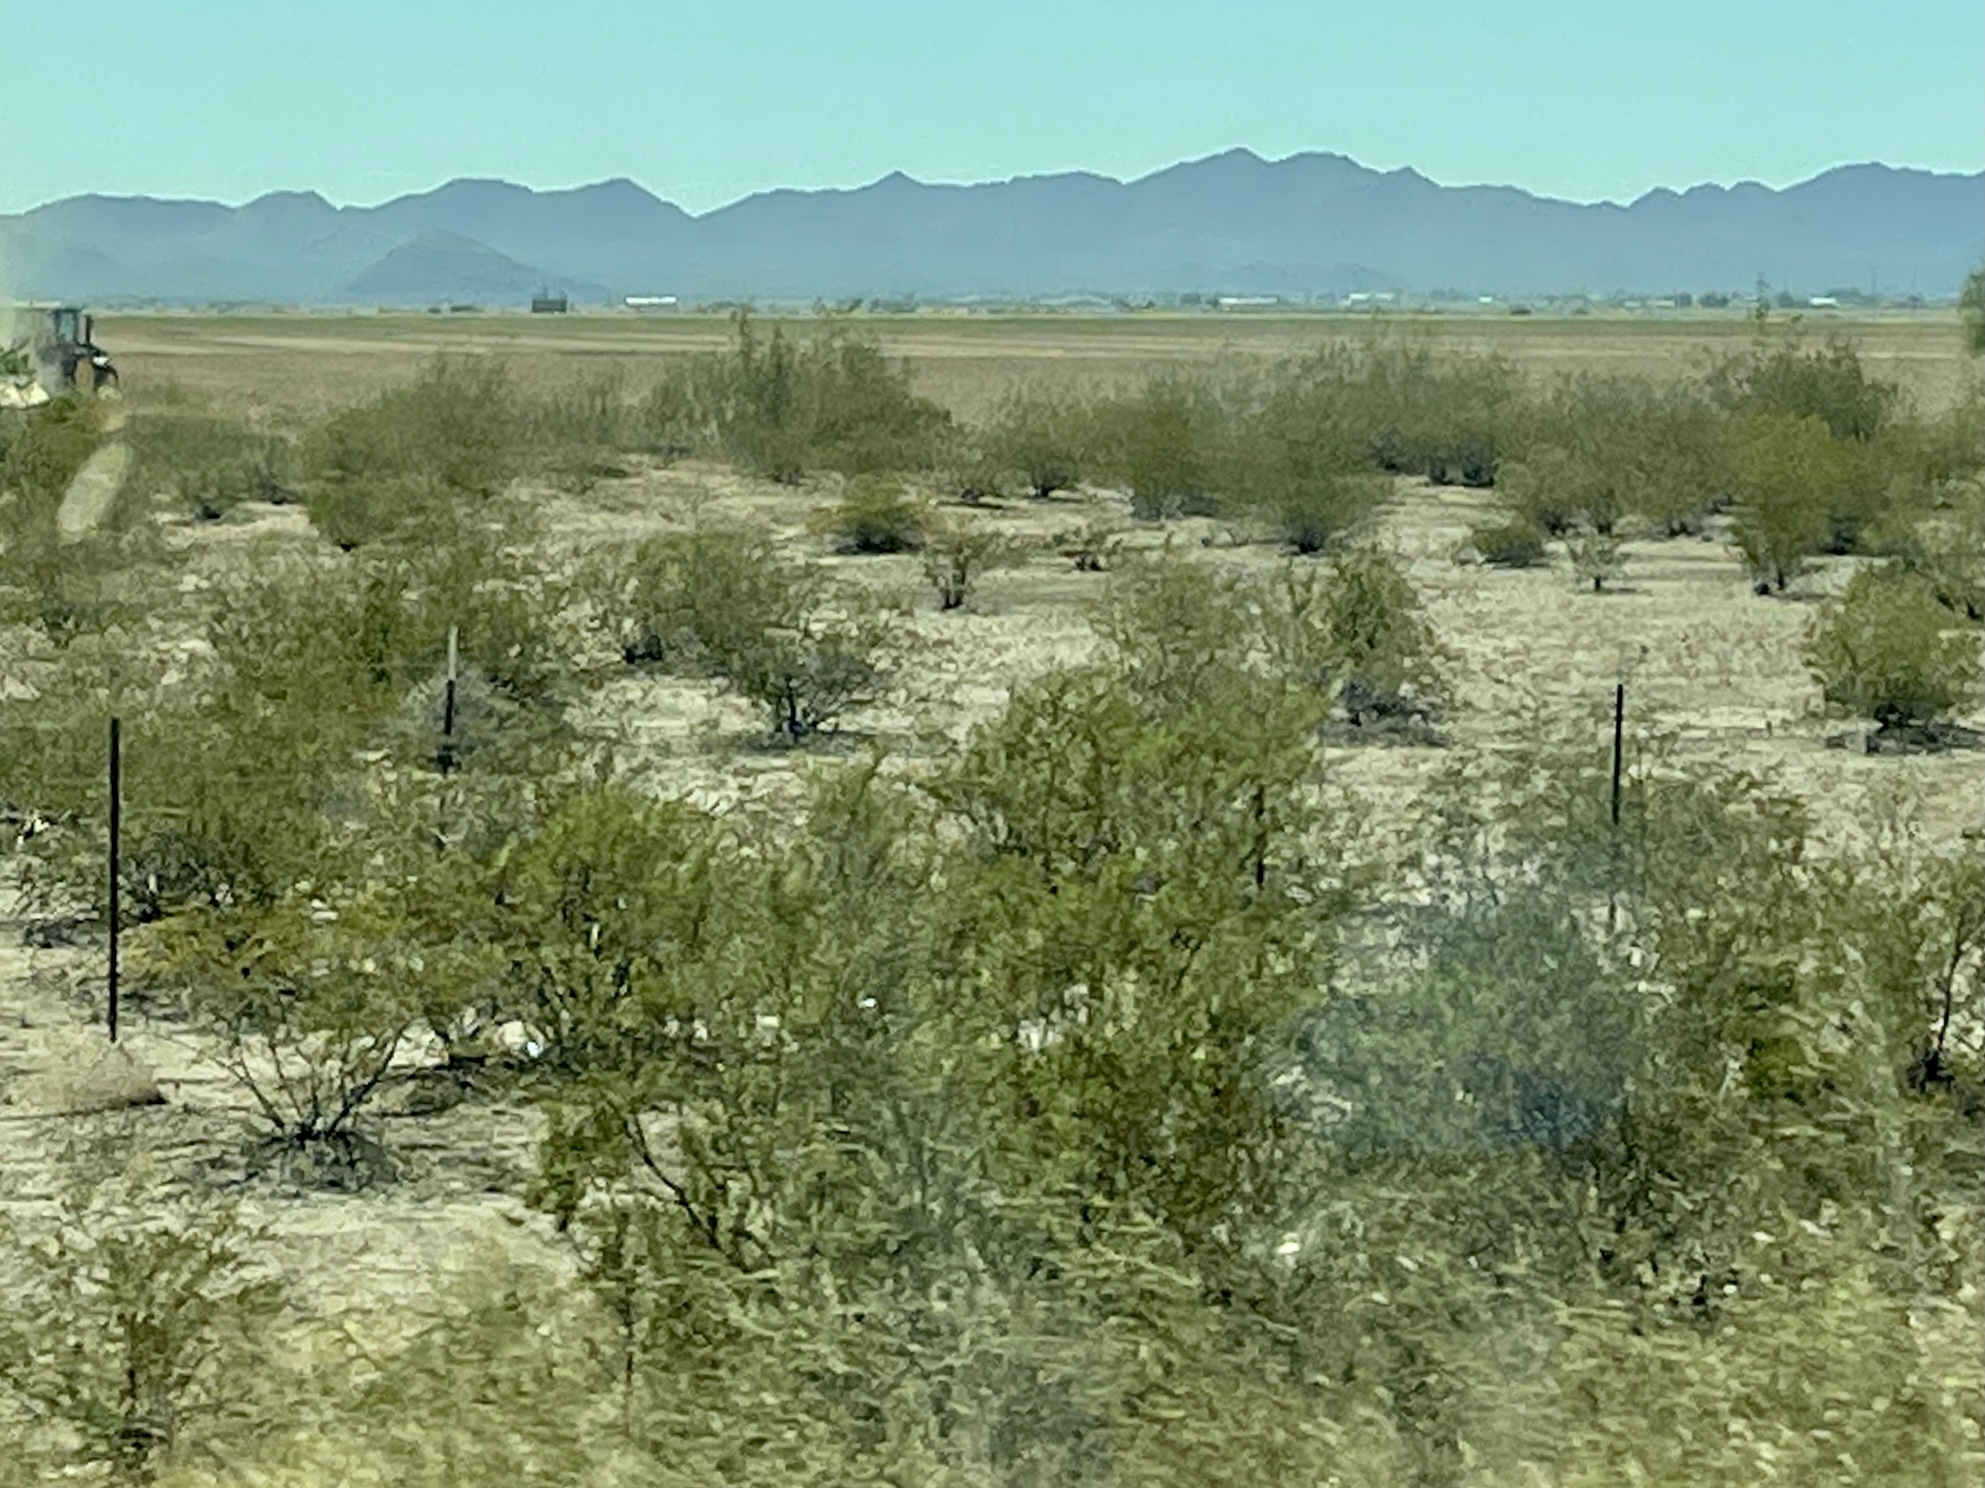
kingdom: Plantae
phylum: Tracheophyta
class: Magnoliopsida
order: Zygophyllales
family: Zygophyllaceae
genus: Larrea
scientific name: Larrea tridentata
